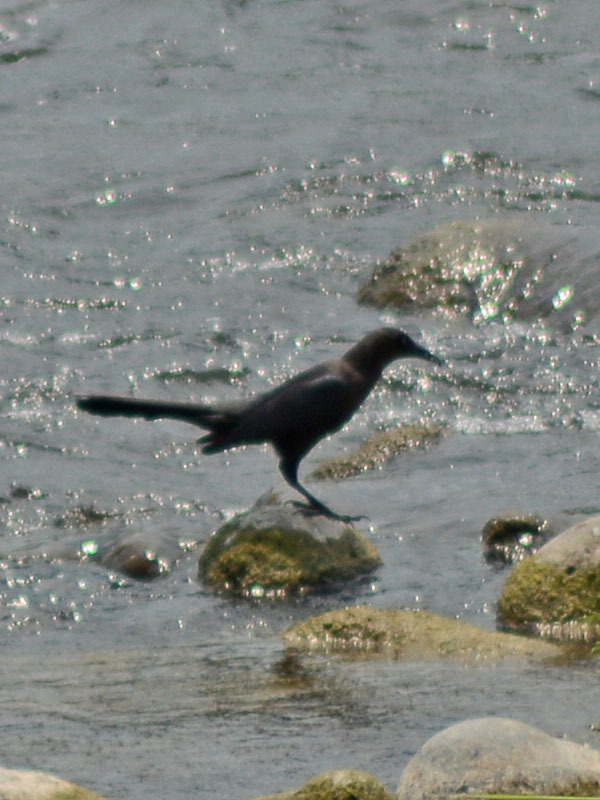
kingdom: Animalia
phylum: Chordata
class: Aves
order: Passeriformes
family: Icteridae
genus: Quiscalus
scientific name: Quiscalus mexicanus
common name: Great-tailed grackle
